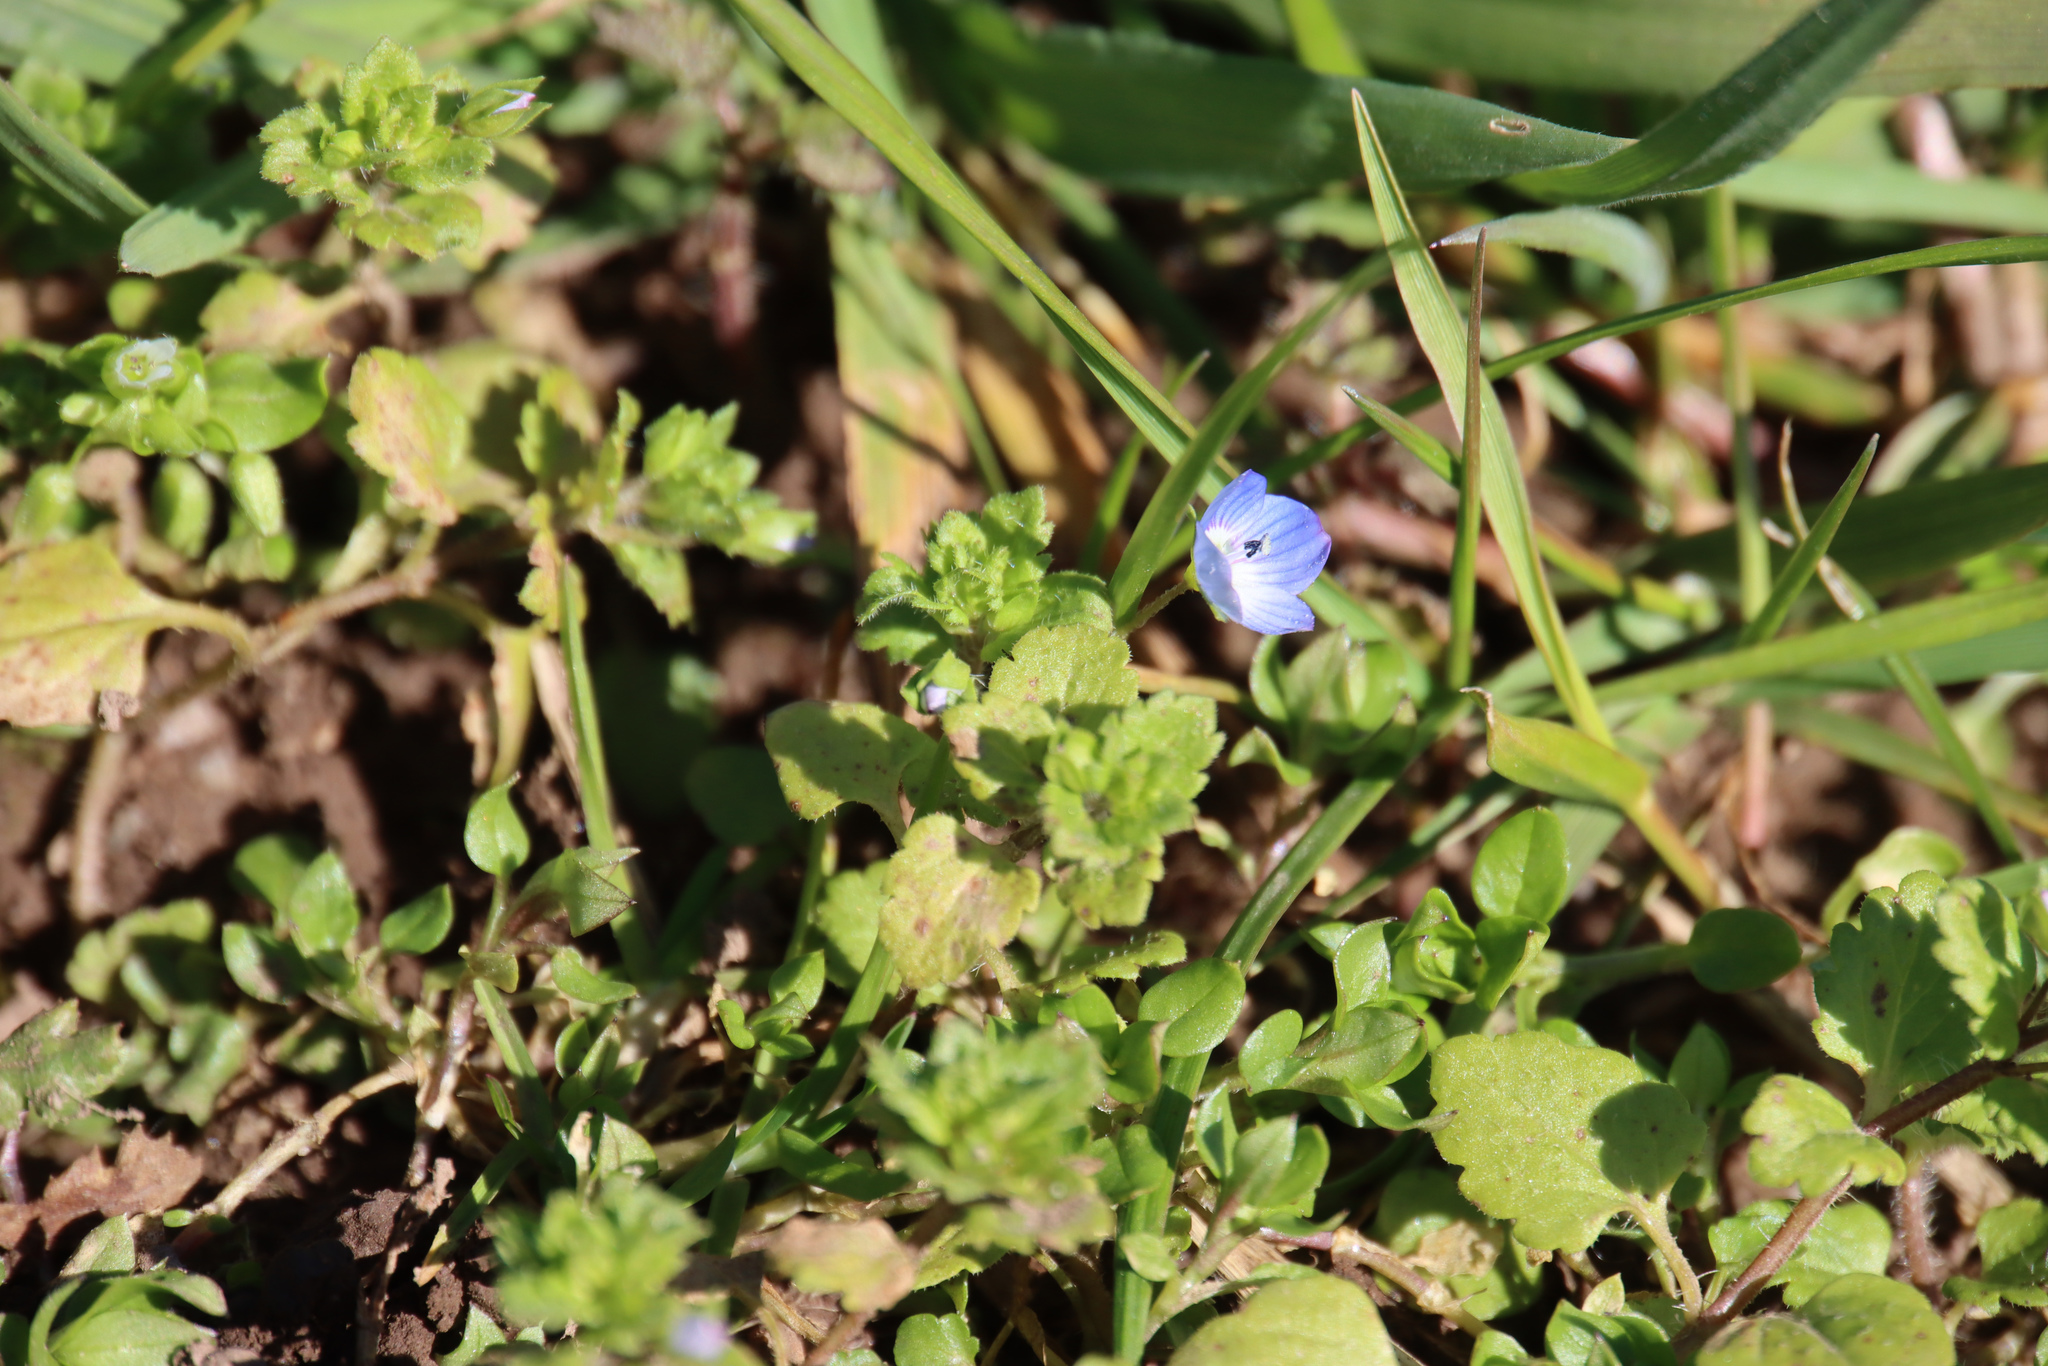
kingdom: Plantae
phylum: Tracheophyta
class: Magnoliopsida
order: Lamiales
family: Plantaginaceae
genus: Veronica
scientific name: Veronica persica
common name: Common field-speedwell
